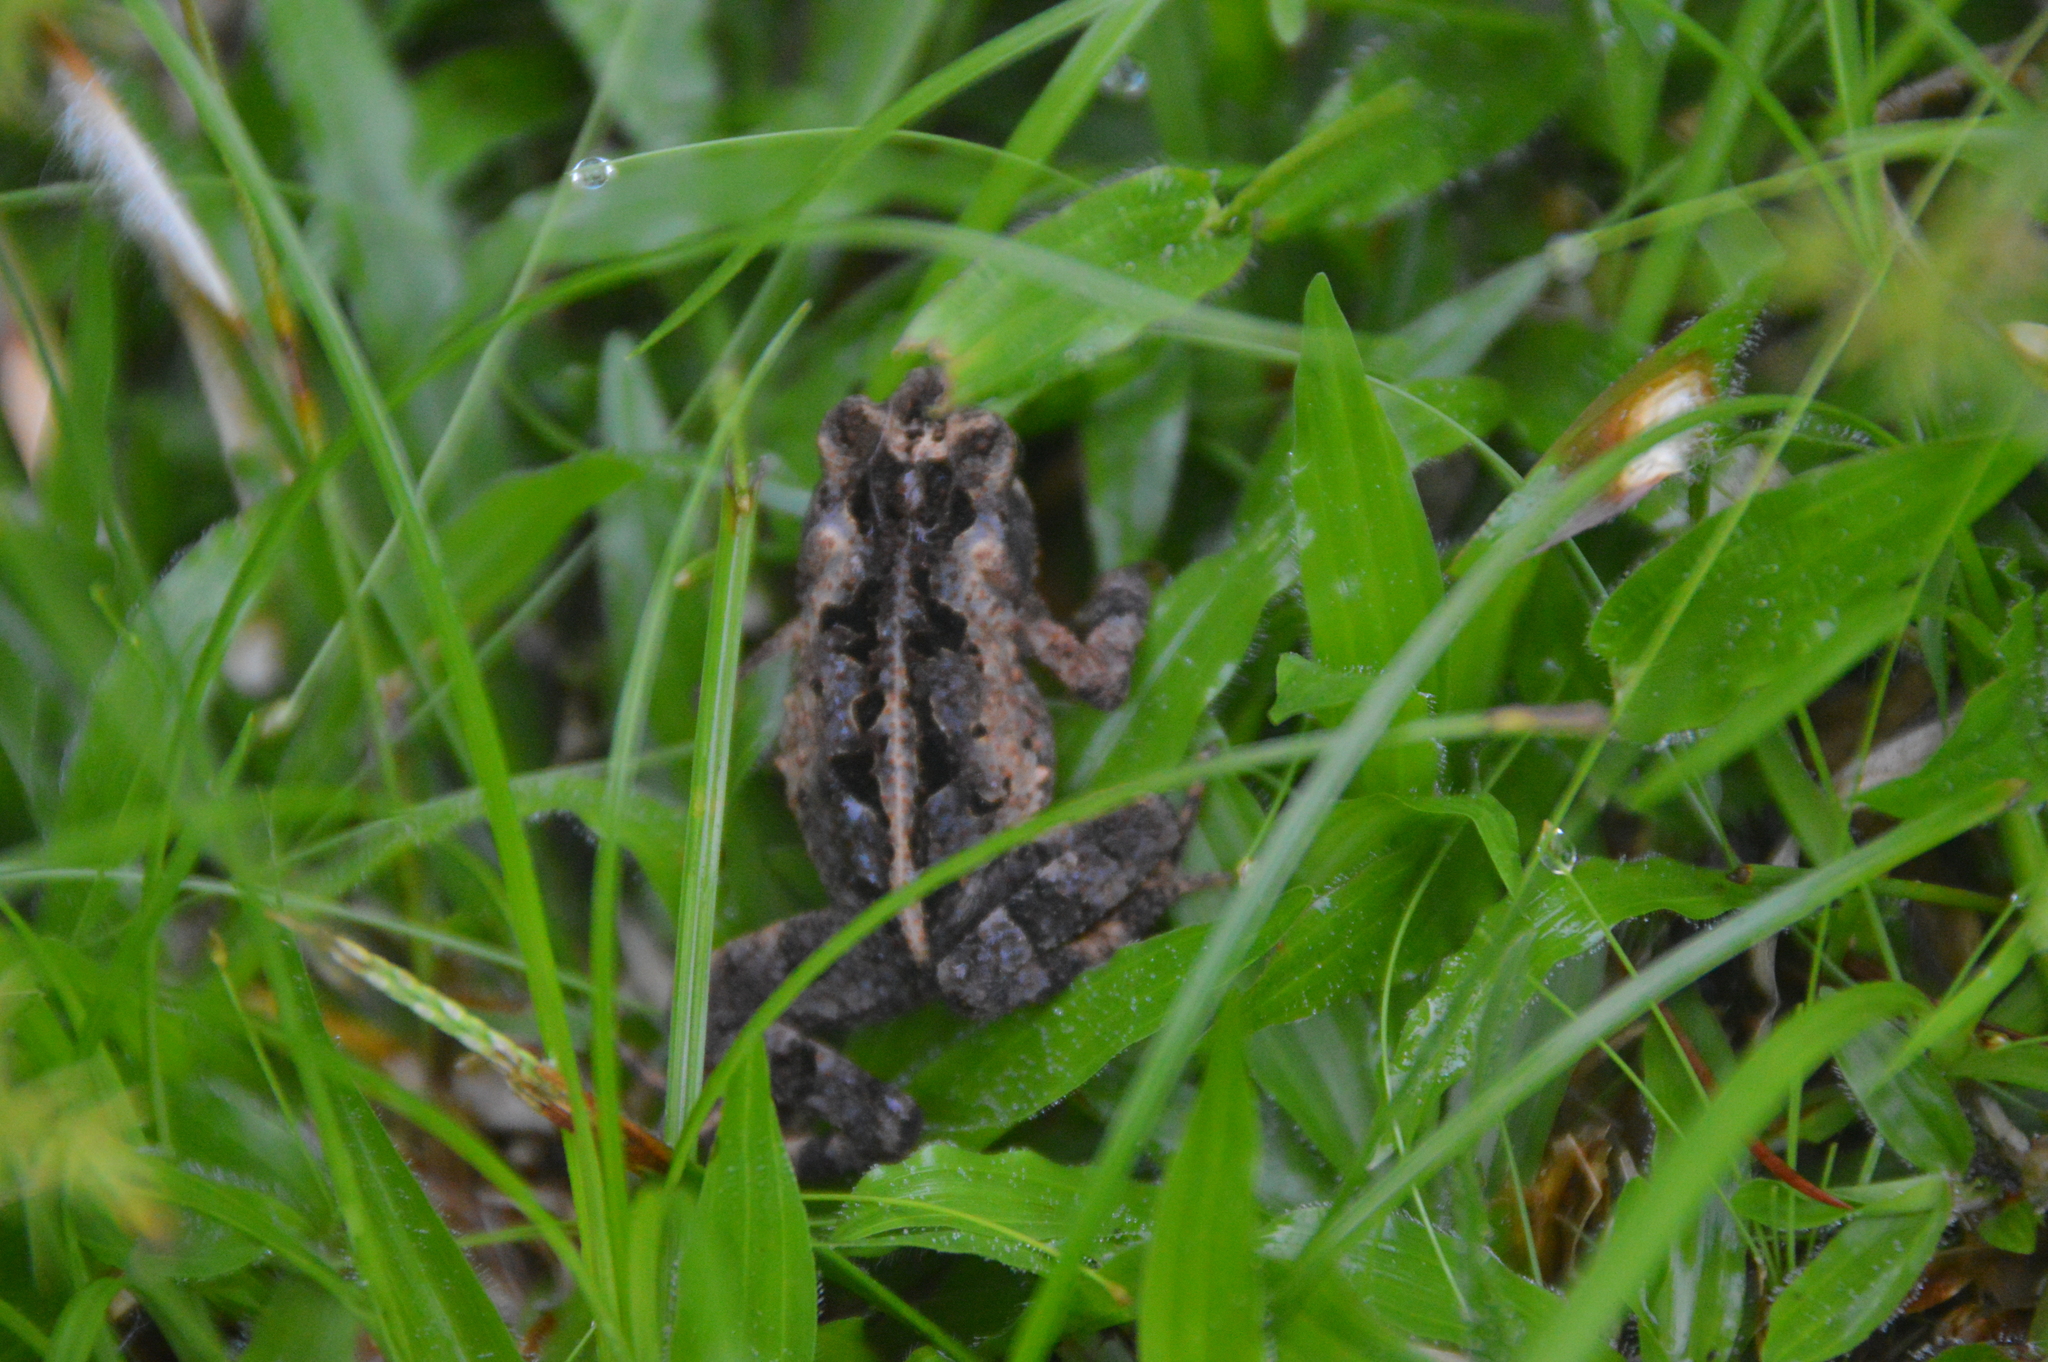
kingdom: Animalia
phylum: Chordata
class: Amphibia
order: Anura
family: Bufonidae
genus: Incilius
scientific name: Incilius melanochlorus
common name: Dark green toad
